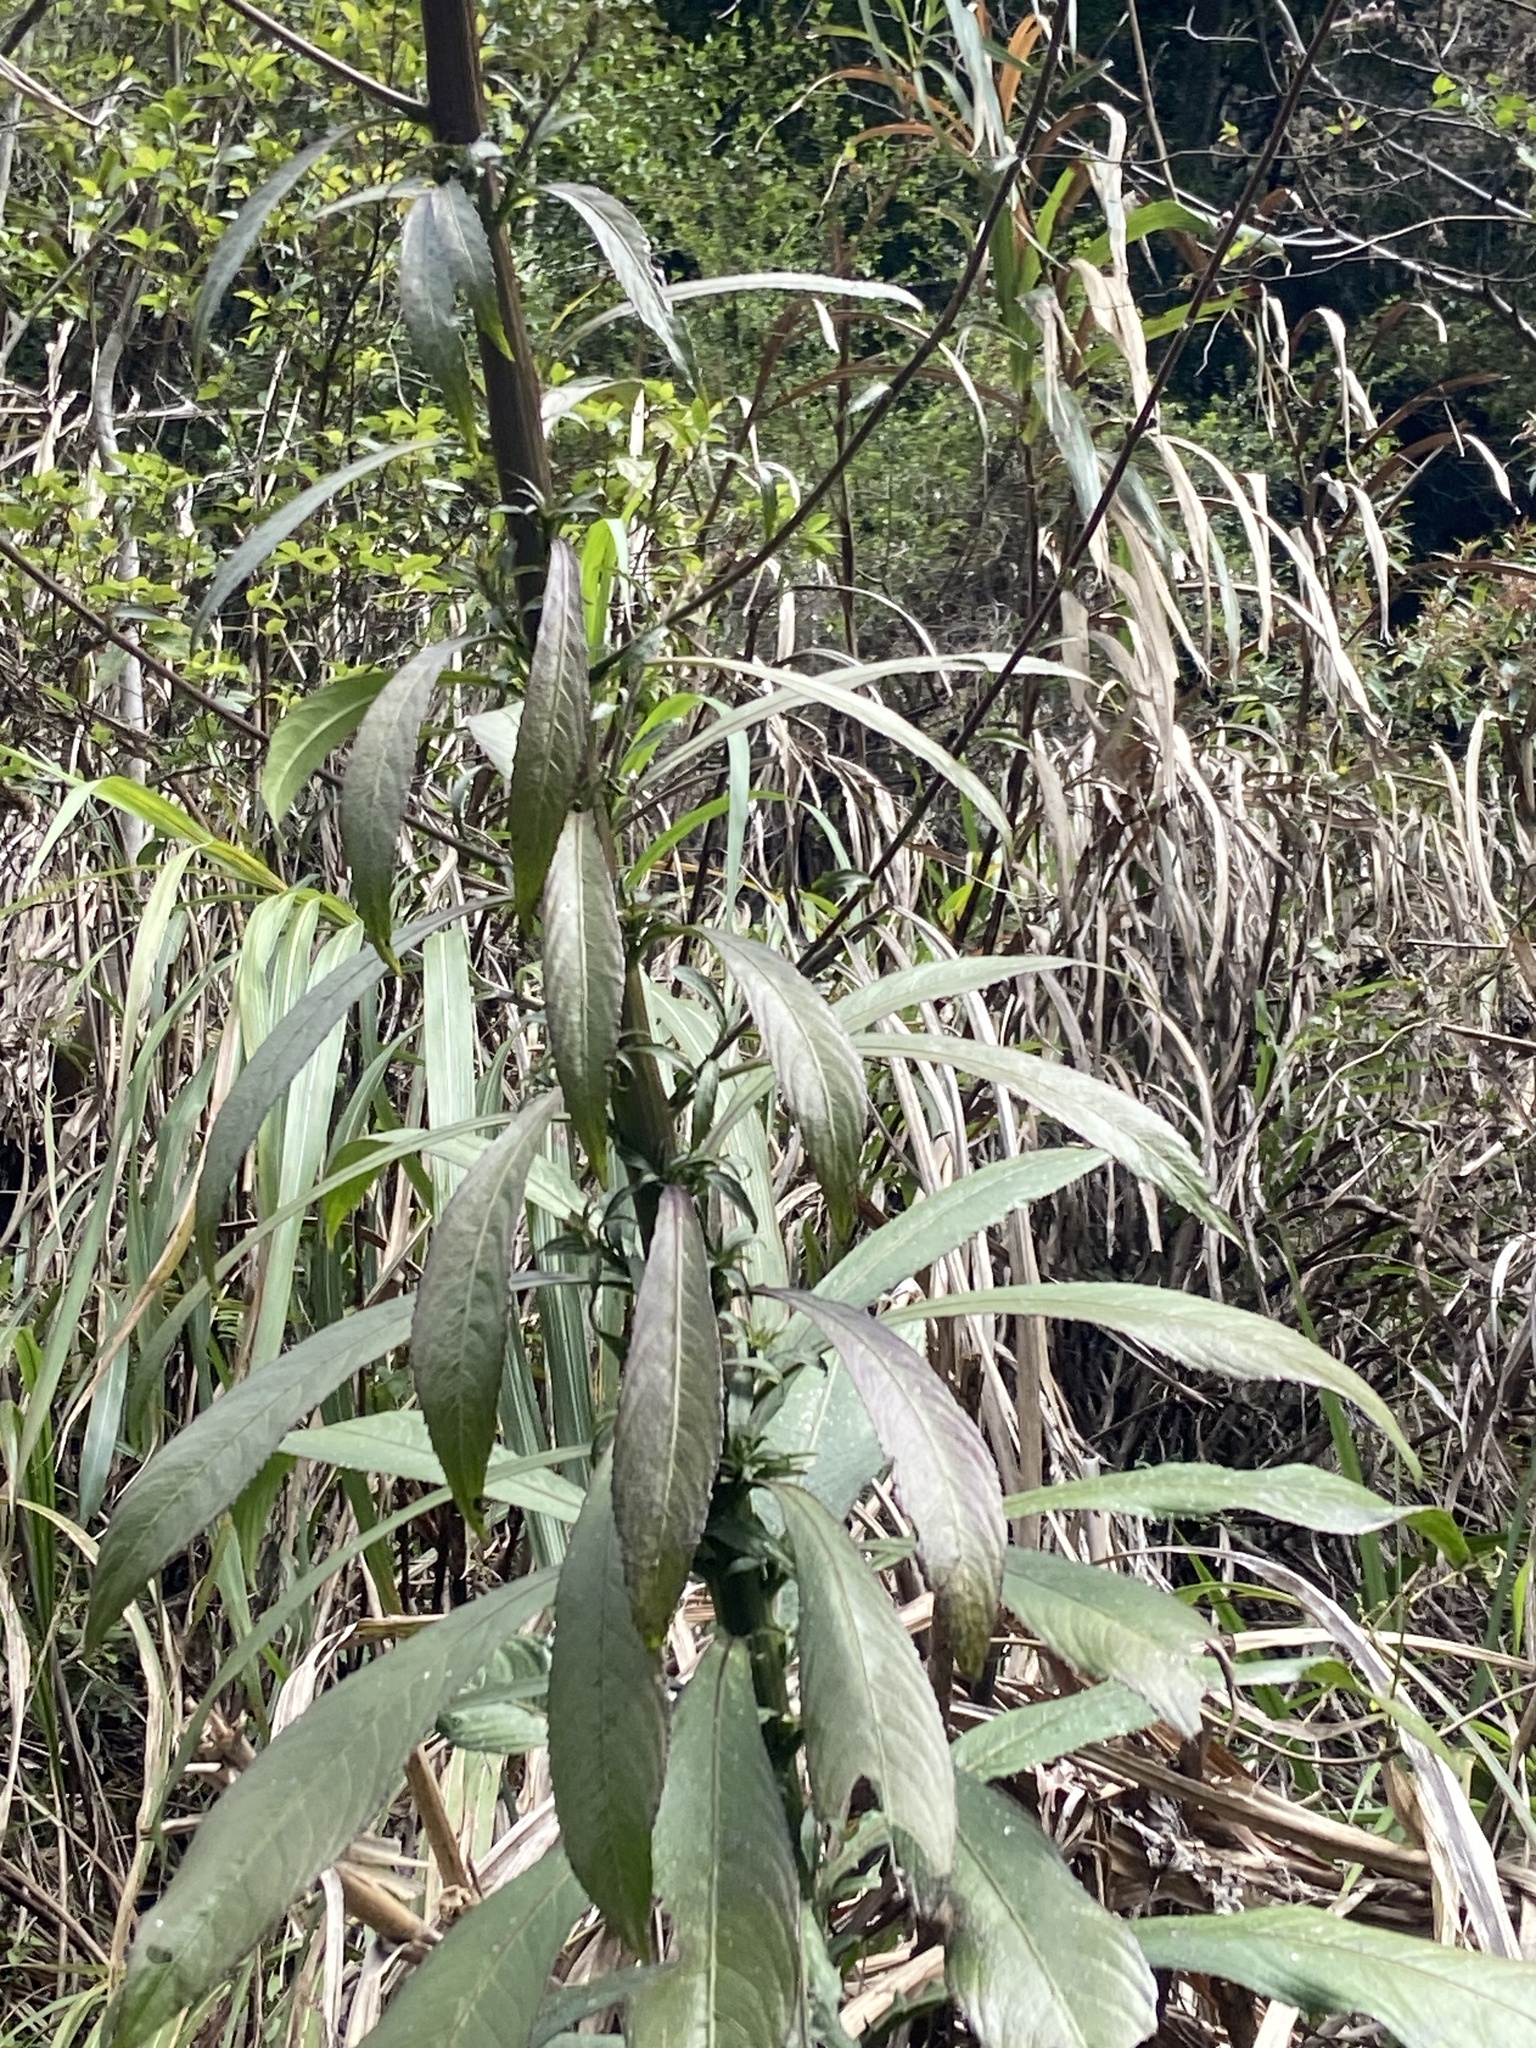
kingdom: Plantae
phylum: Tracheophyta
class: Magnoliopsida
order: Asterales
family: Asteraceae
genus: Blumea
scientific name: Blumea lanceolaria
